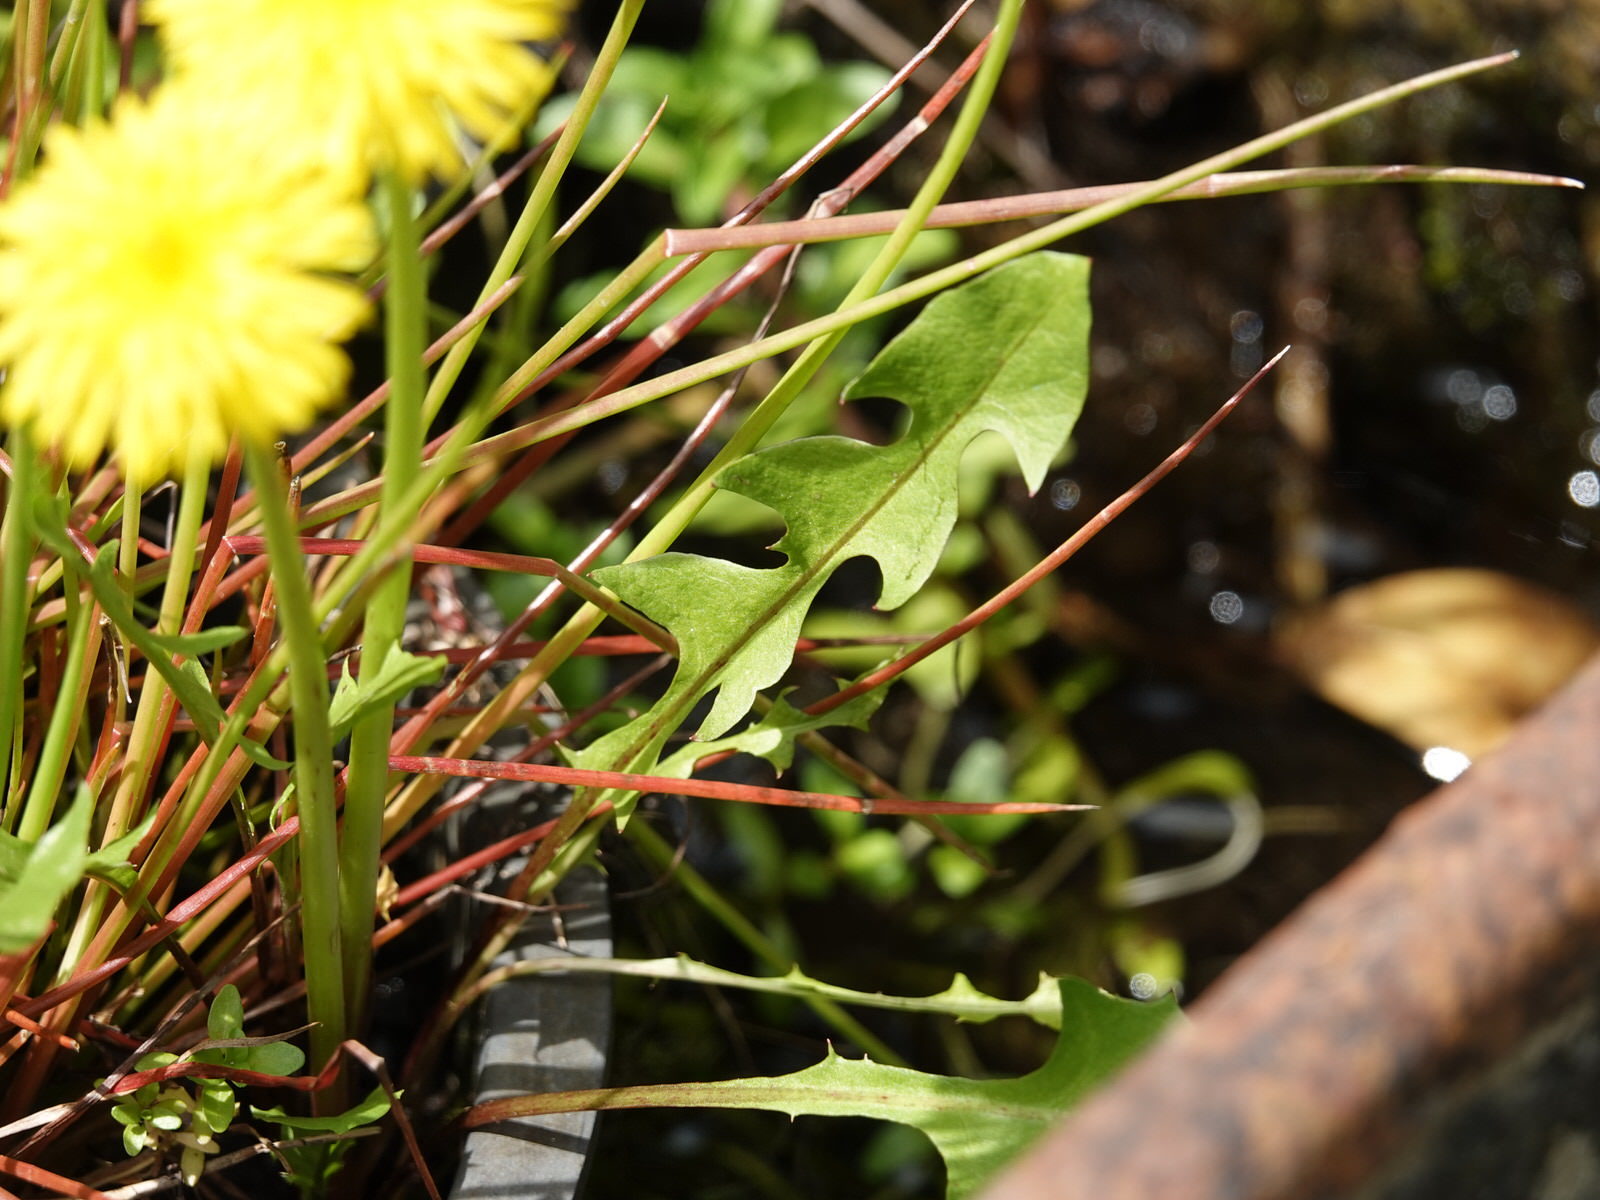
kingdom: Plantae
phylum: Tracheophyta
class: Magnoliopsida
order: Asterales
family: Asteraceae
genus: Taraxacum
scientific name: Taraxacum officinale
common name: Common dandelion
